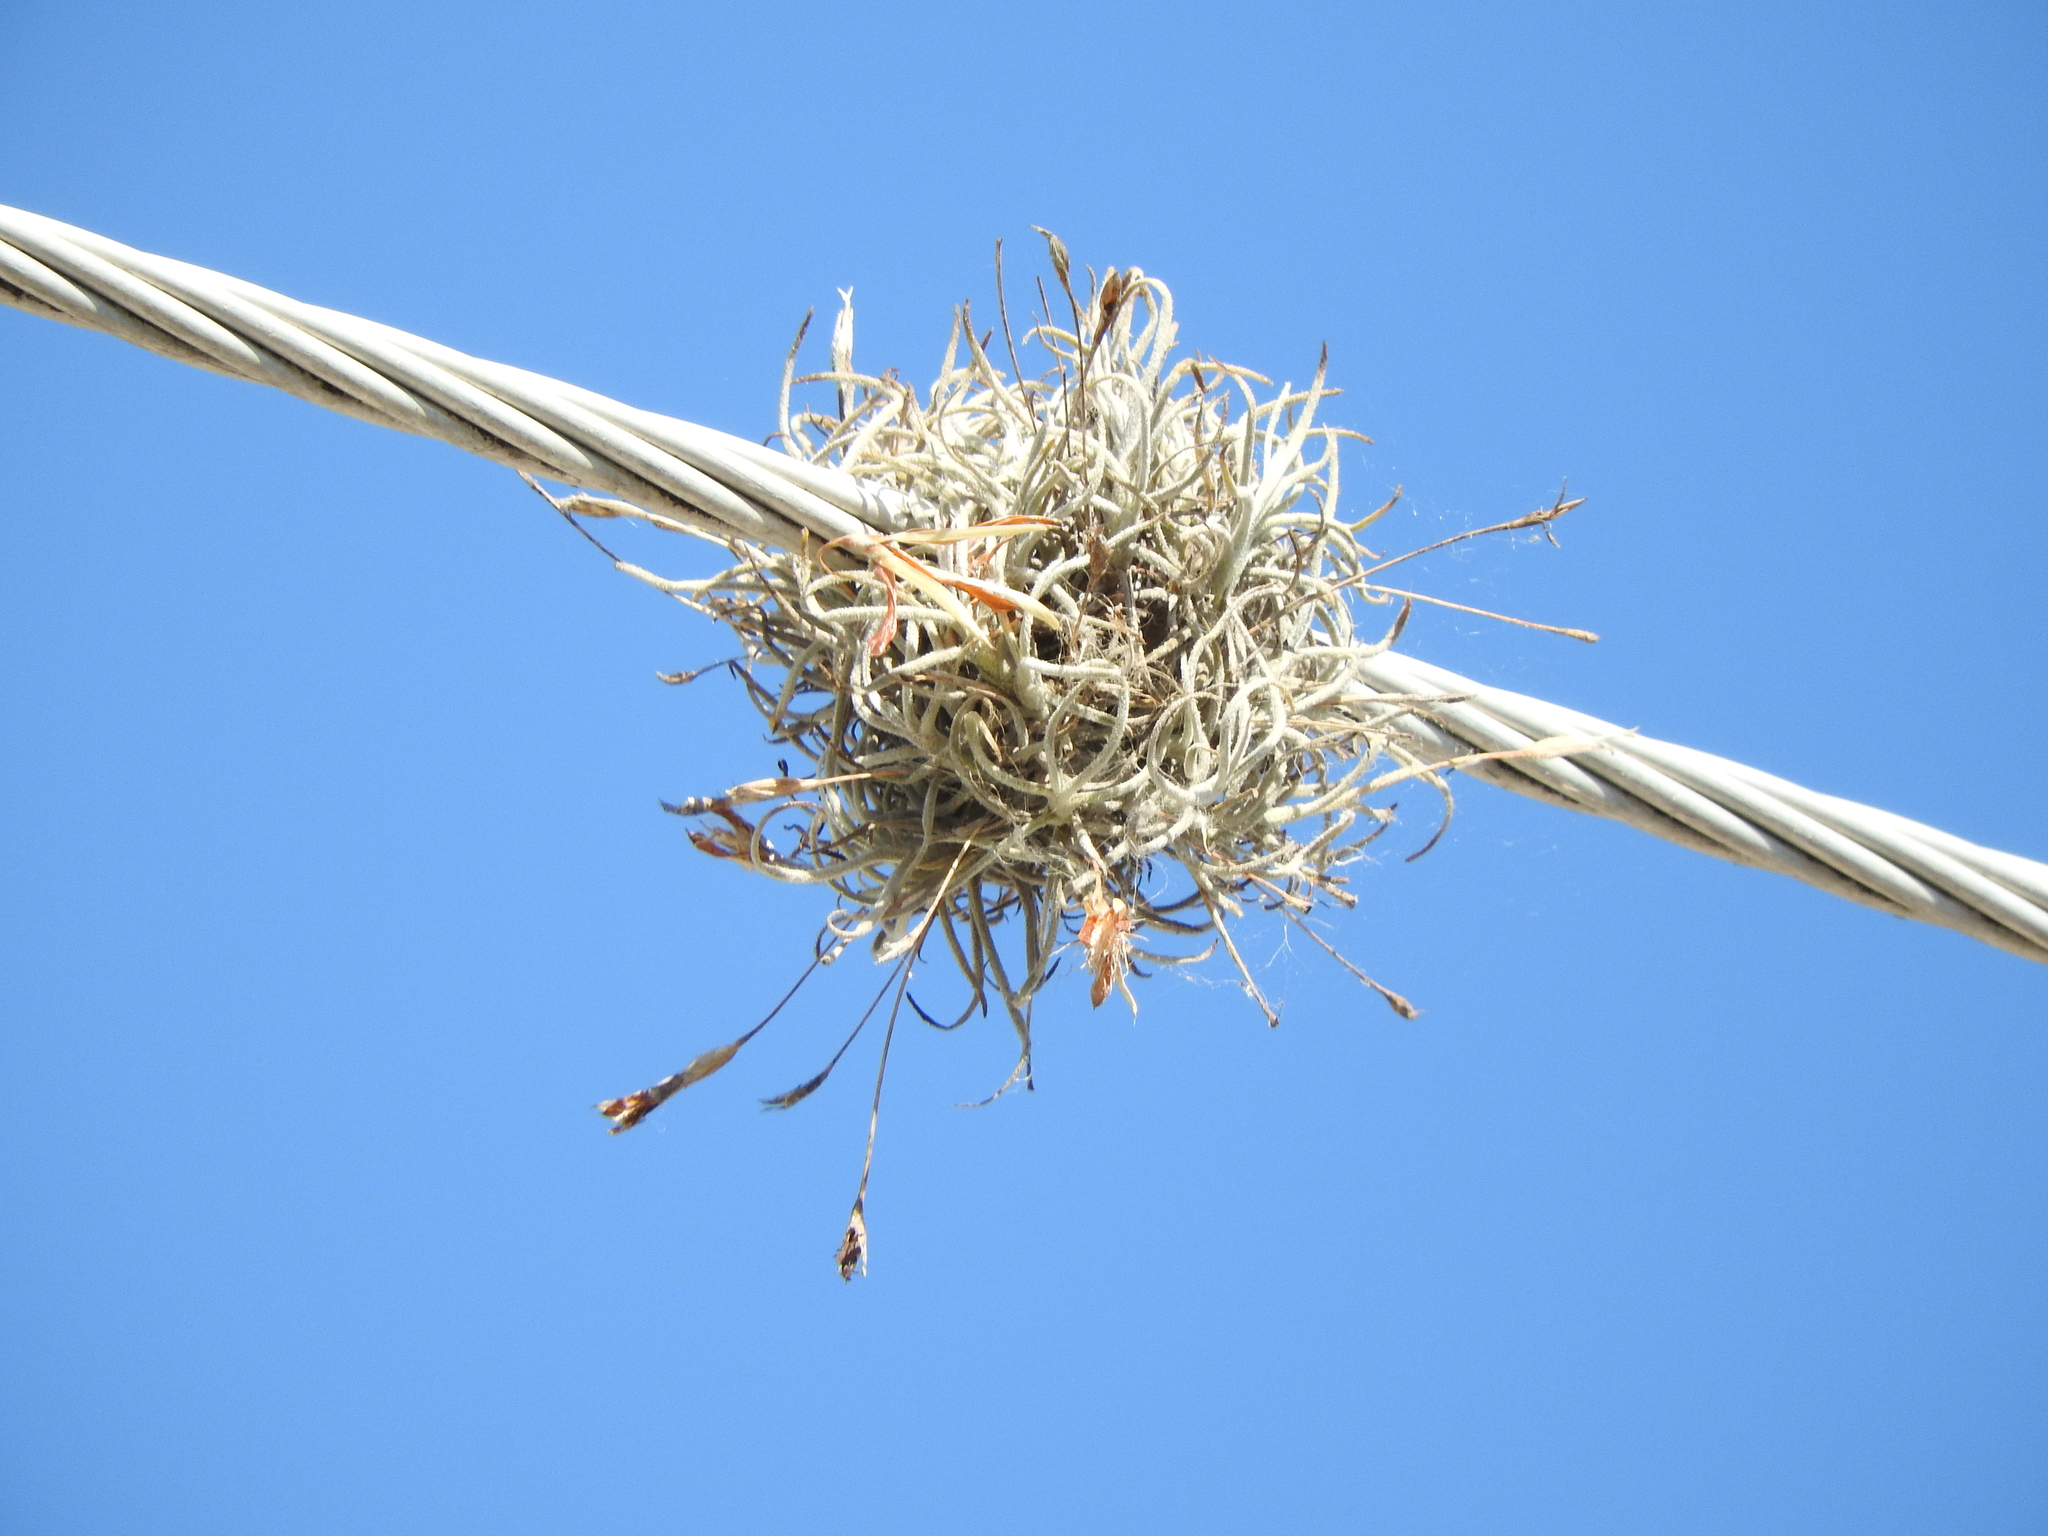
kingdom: Plantae
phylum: Tracheophyta
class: Liliopsida
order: Poales
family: Bromeliaceae
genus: Tillandsia
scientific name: Tillandsia recurvata
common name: Small ballmoss
